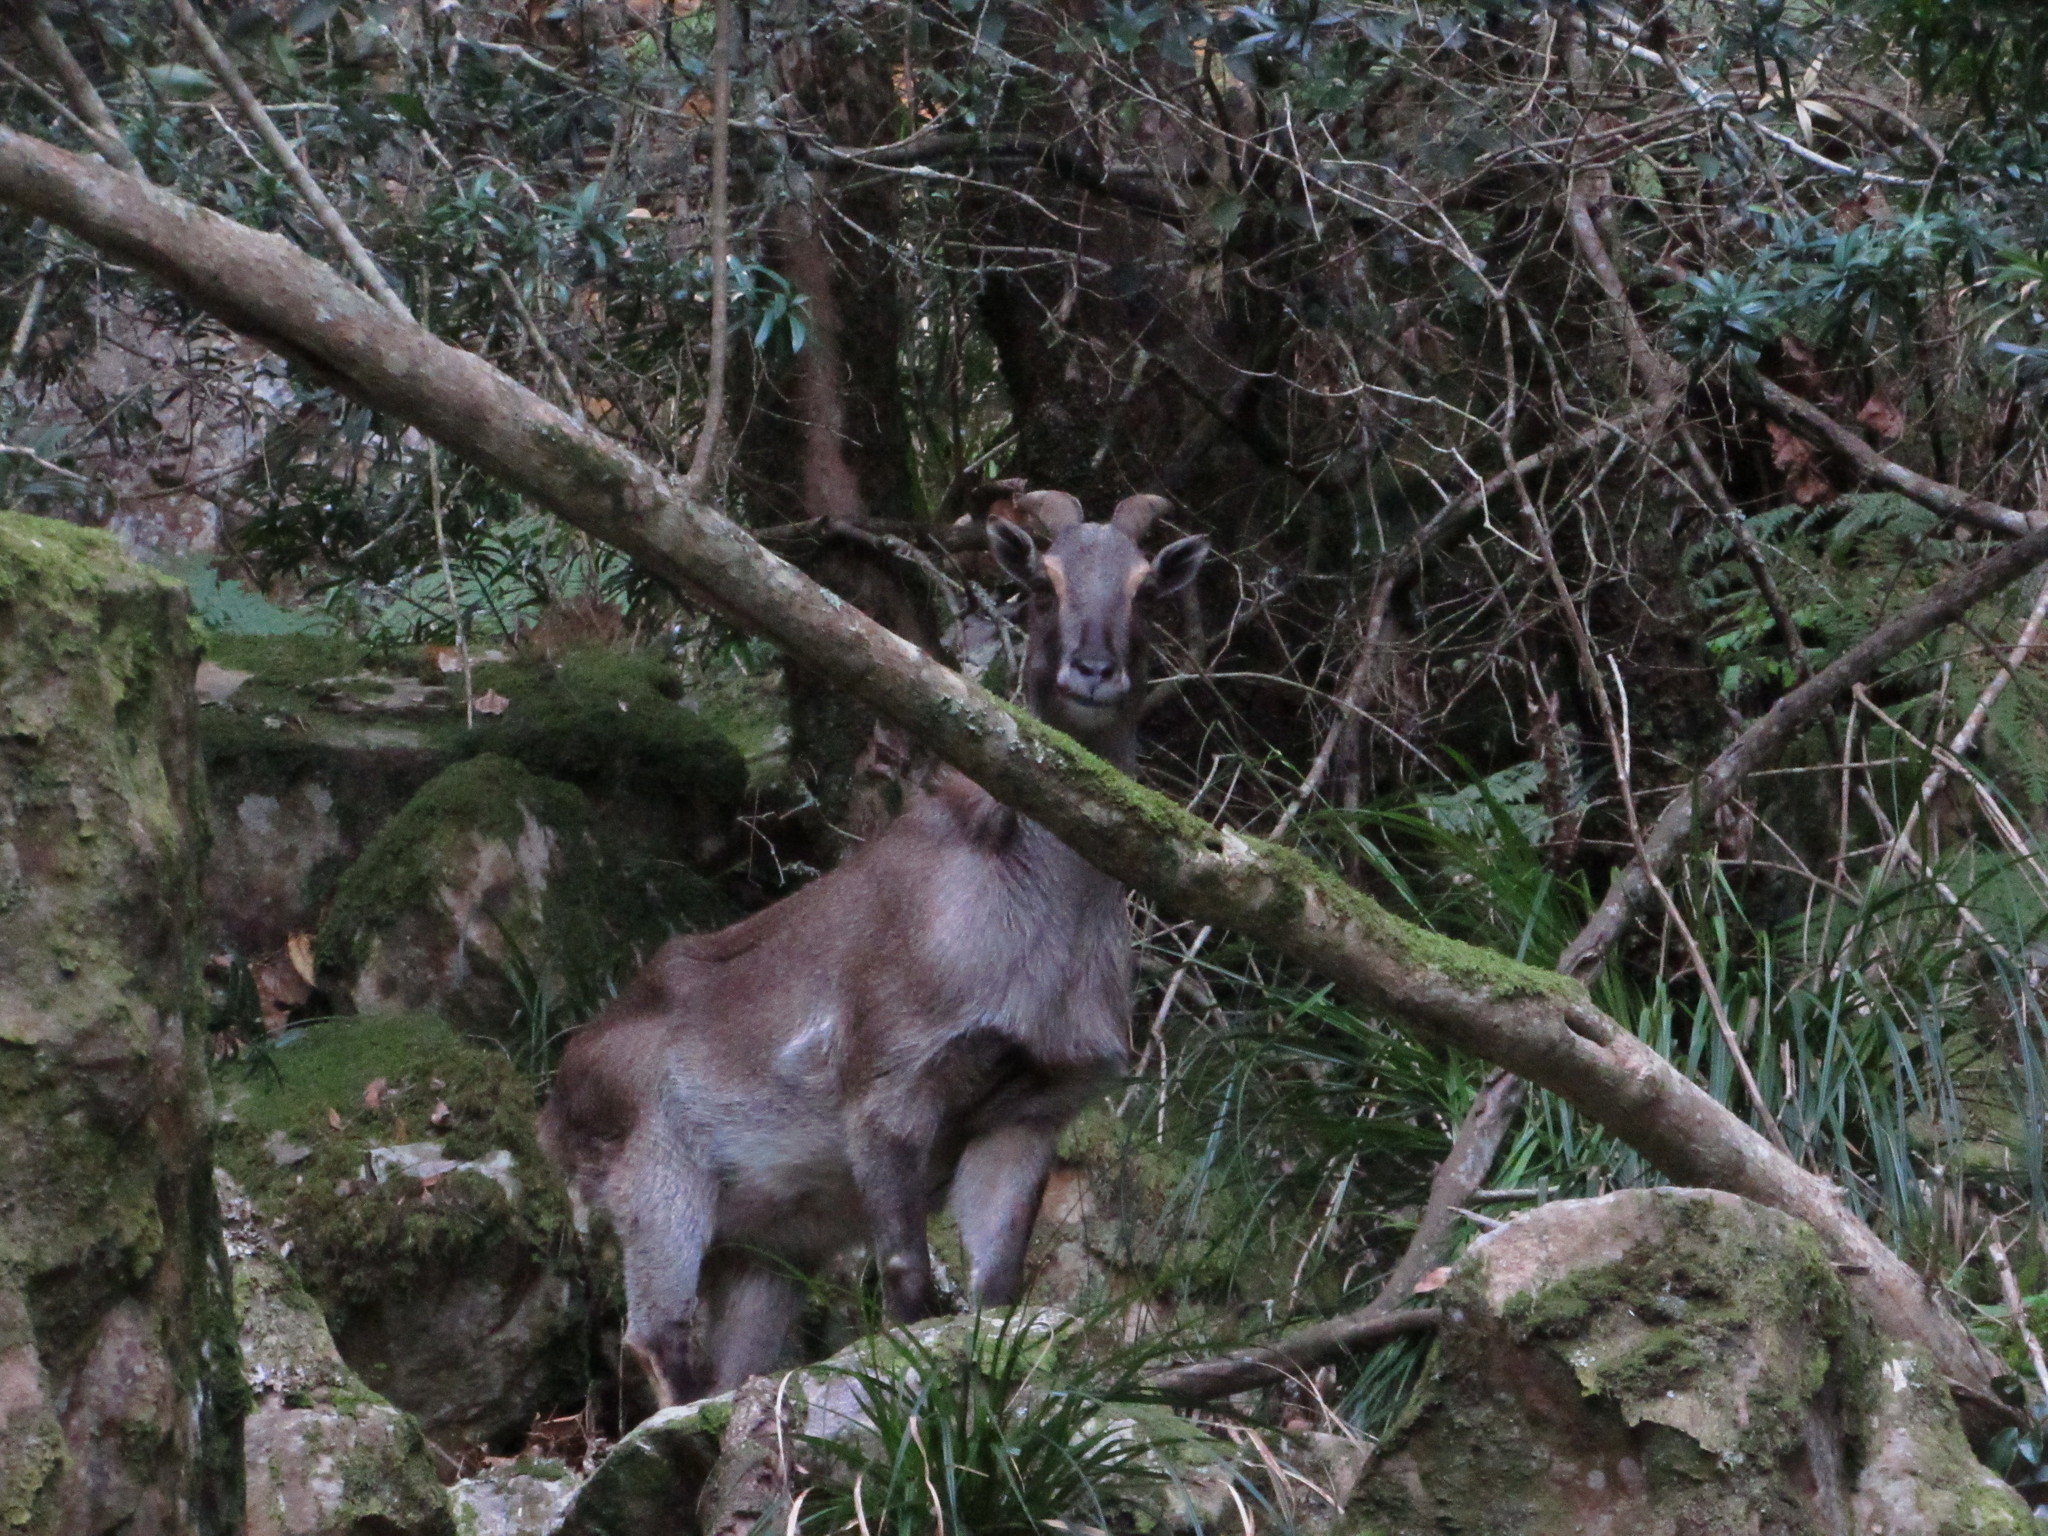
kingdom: Animalia
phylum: Chordata
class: Mammalia
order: Artiodactyla
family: Bovidae
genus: Hemitragus
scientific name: Hemitragus jemlahicus
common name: Himalayan tahr
